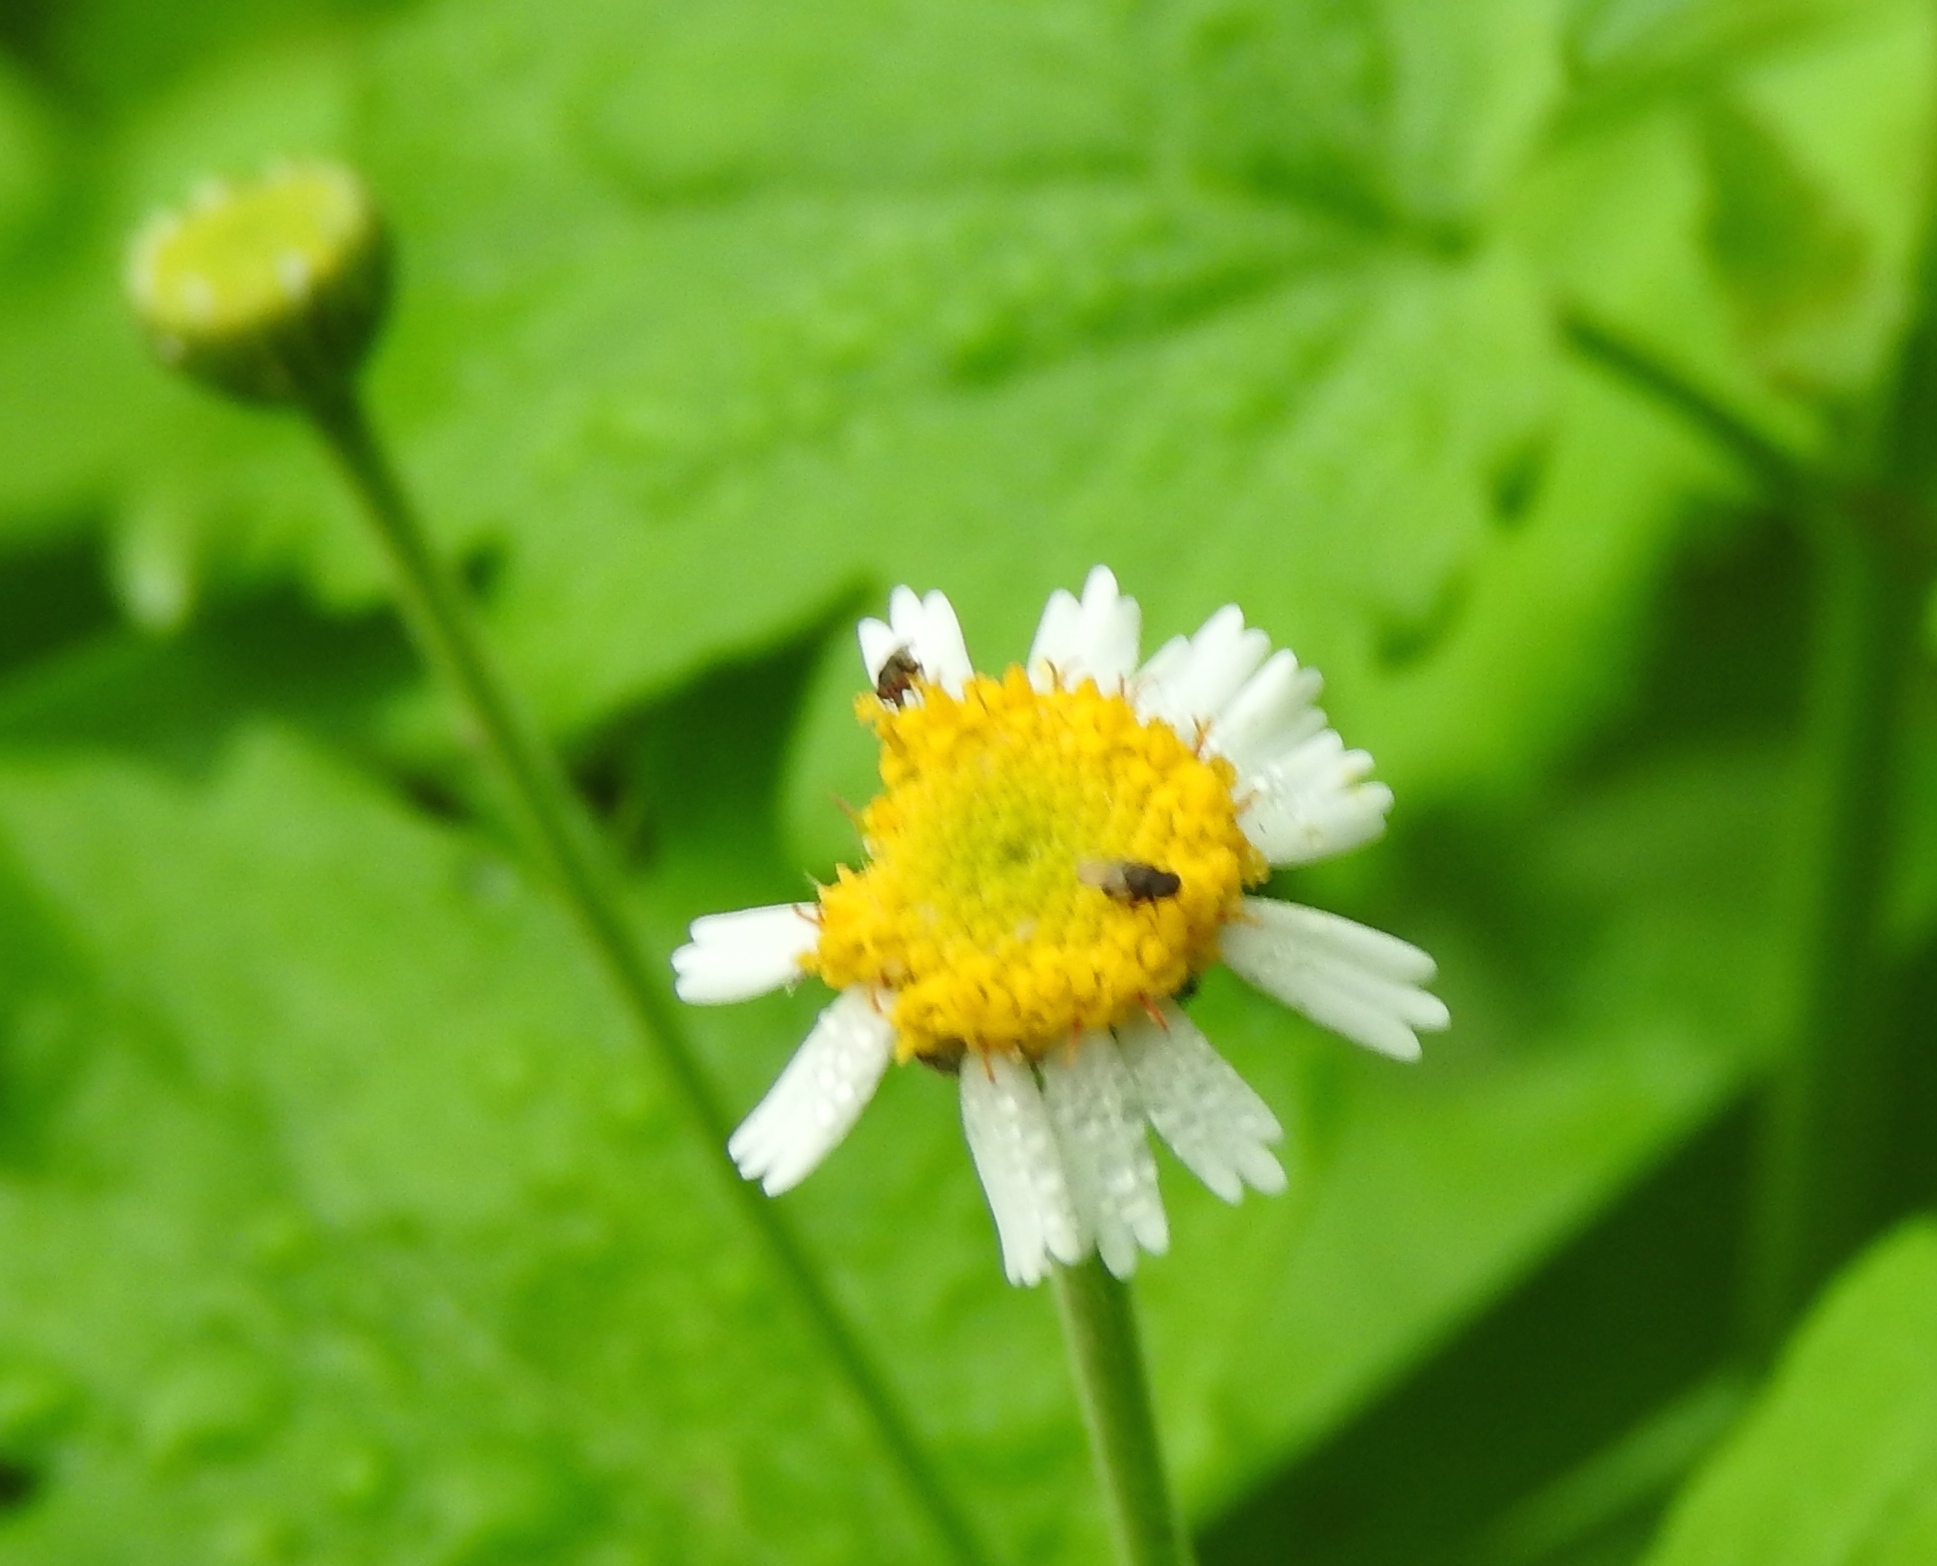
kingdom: Plantae
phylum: Tracheophyta
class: Magnoliopsida
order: Asterales
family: Asteraceae
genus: Galinsogeopsis
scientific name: Galinsogeopsis spilanthoides
